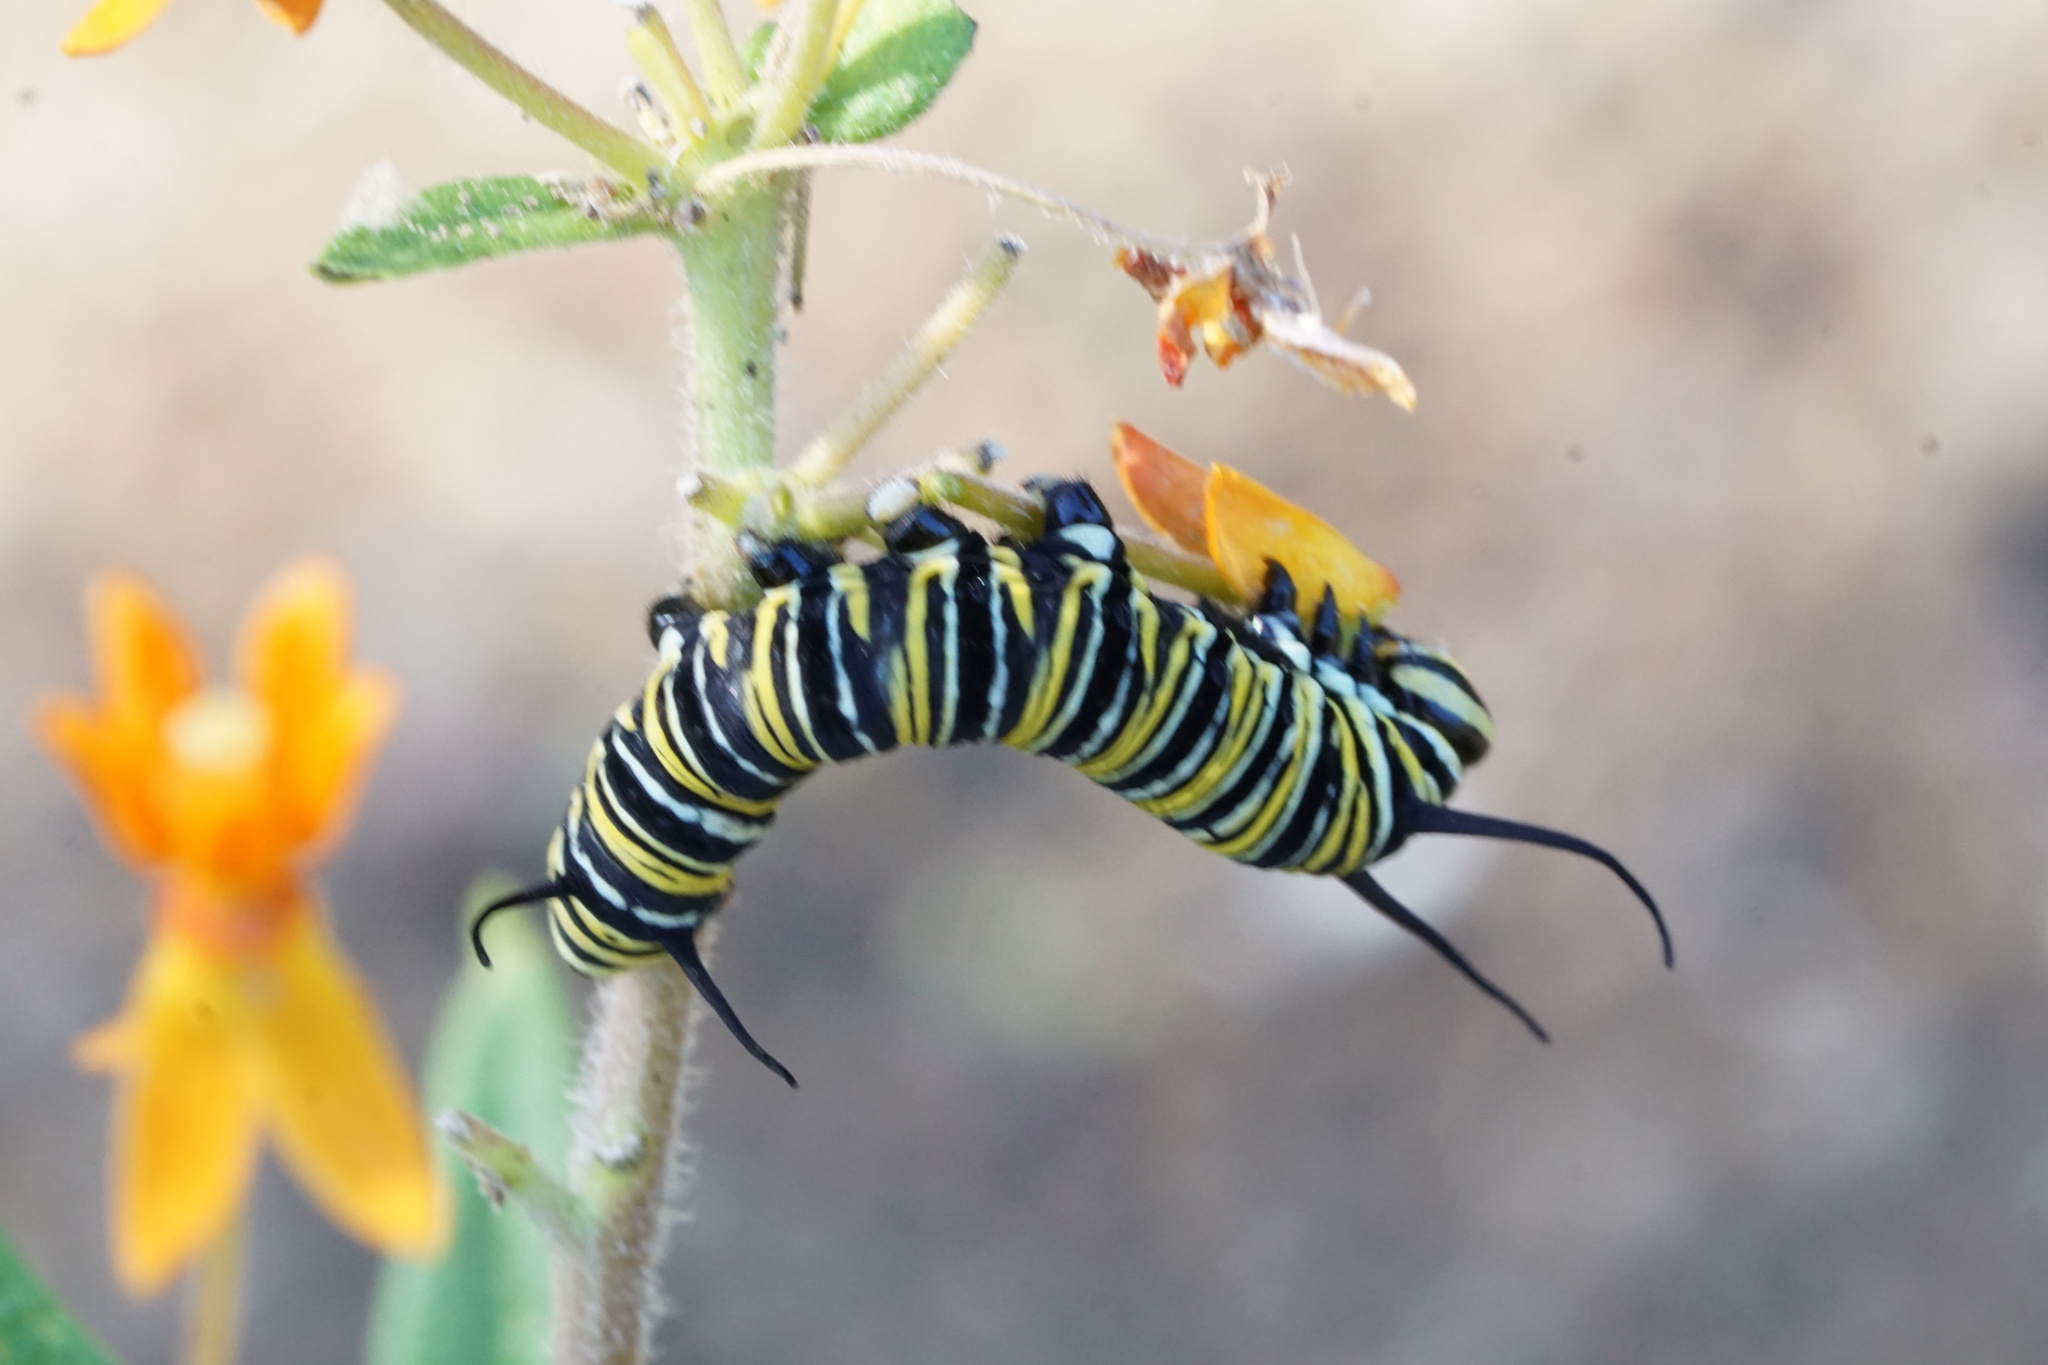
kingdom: Animalia
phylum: Arthropoda
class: Insecta
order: Lepidoptera
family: Nymphalidae
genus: Danaus
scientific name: Danaus plexippus
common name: Monarch
